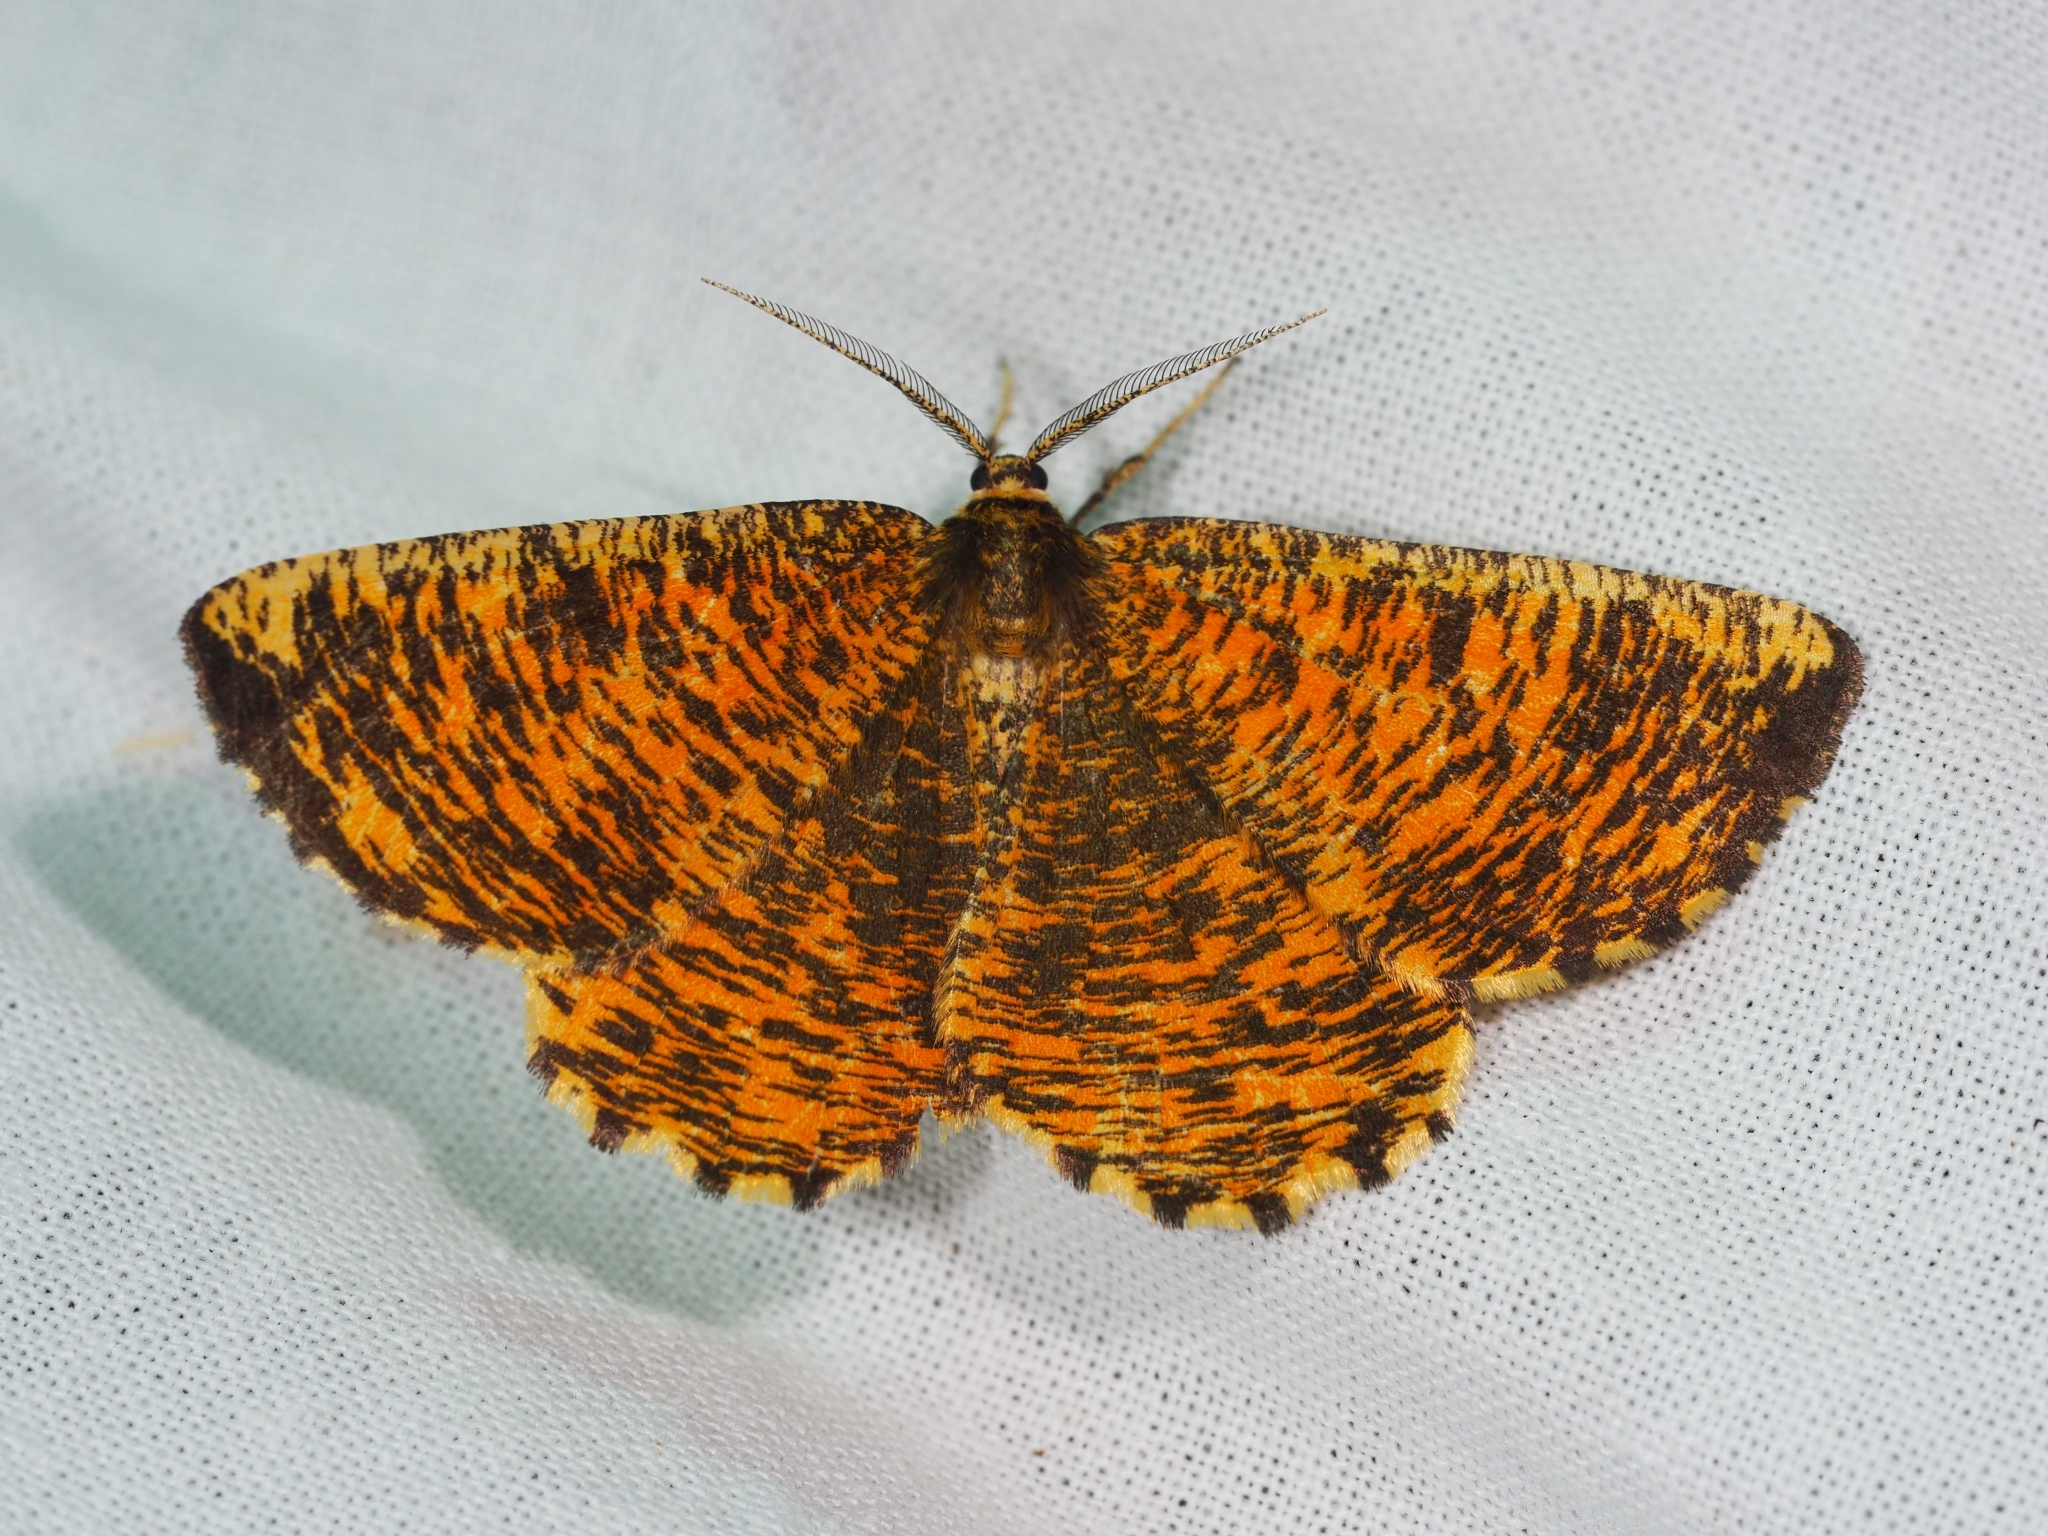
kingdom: Animalia
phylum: Arthropoda
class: Insecta
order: Lepidoptera
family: Geometridae
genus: Angerona
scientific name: Angerona prunaria
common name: Orange moth
